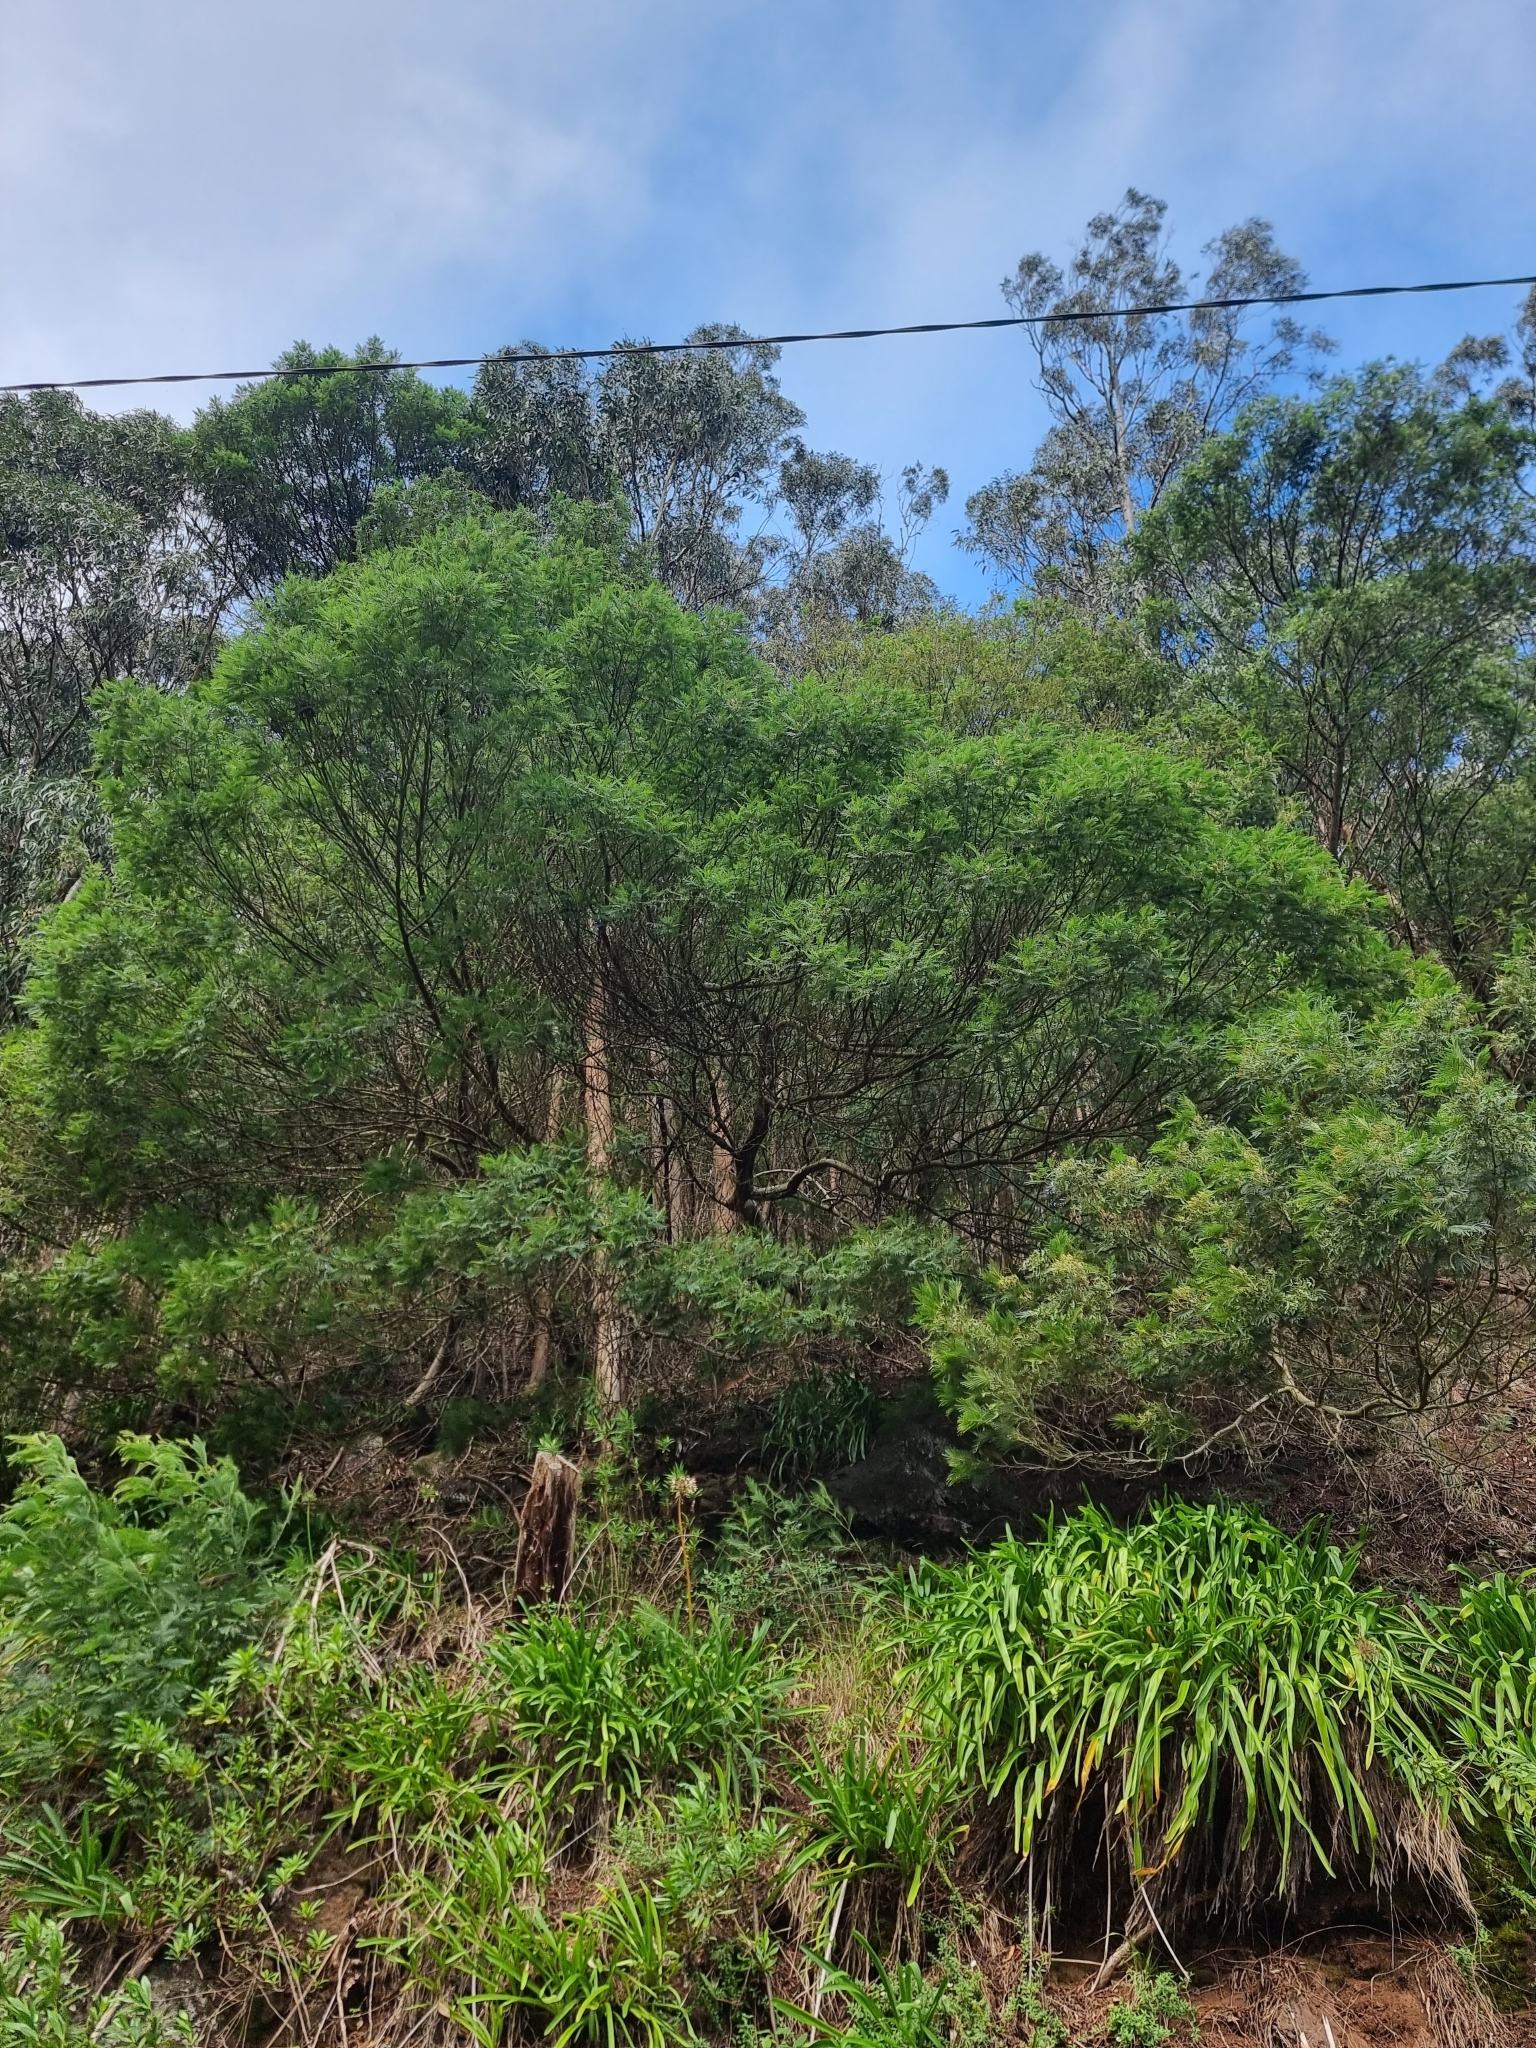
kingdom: Plantae
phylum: Tracheophyta
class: Magnoliopsida
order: Fabales
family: Fabaceae
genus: Acacia
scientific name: Acacia mearnsii
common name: Black wattle
